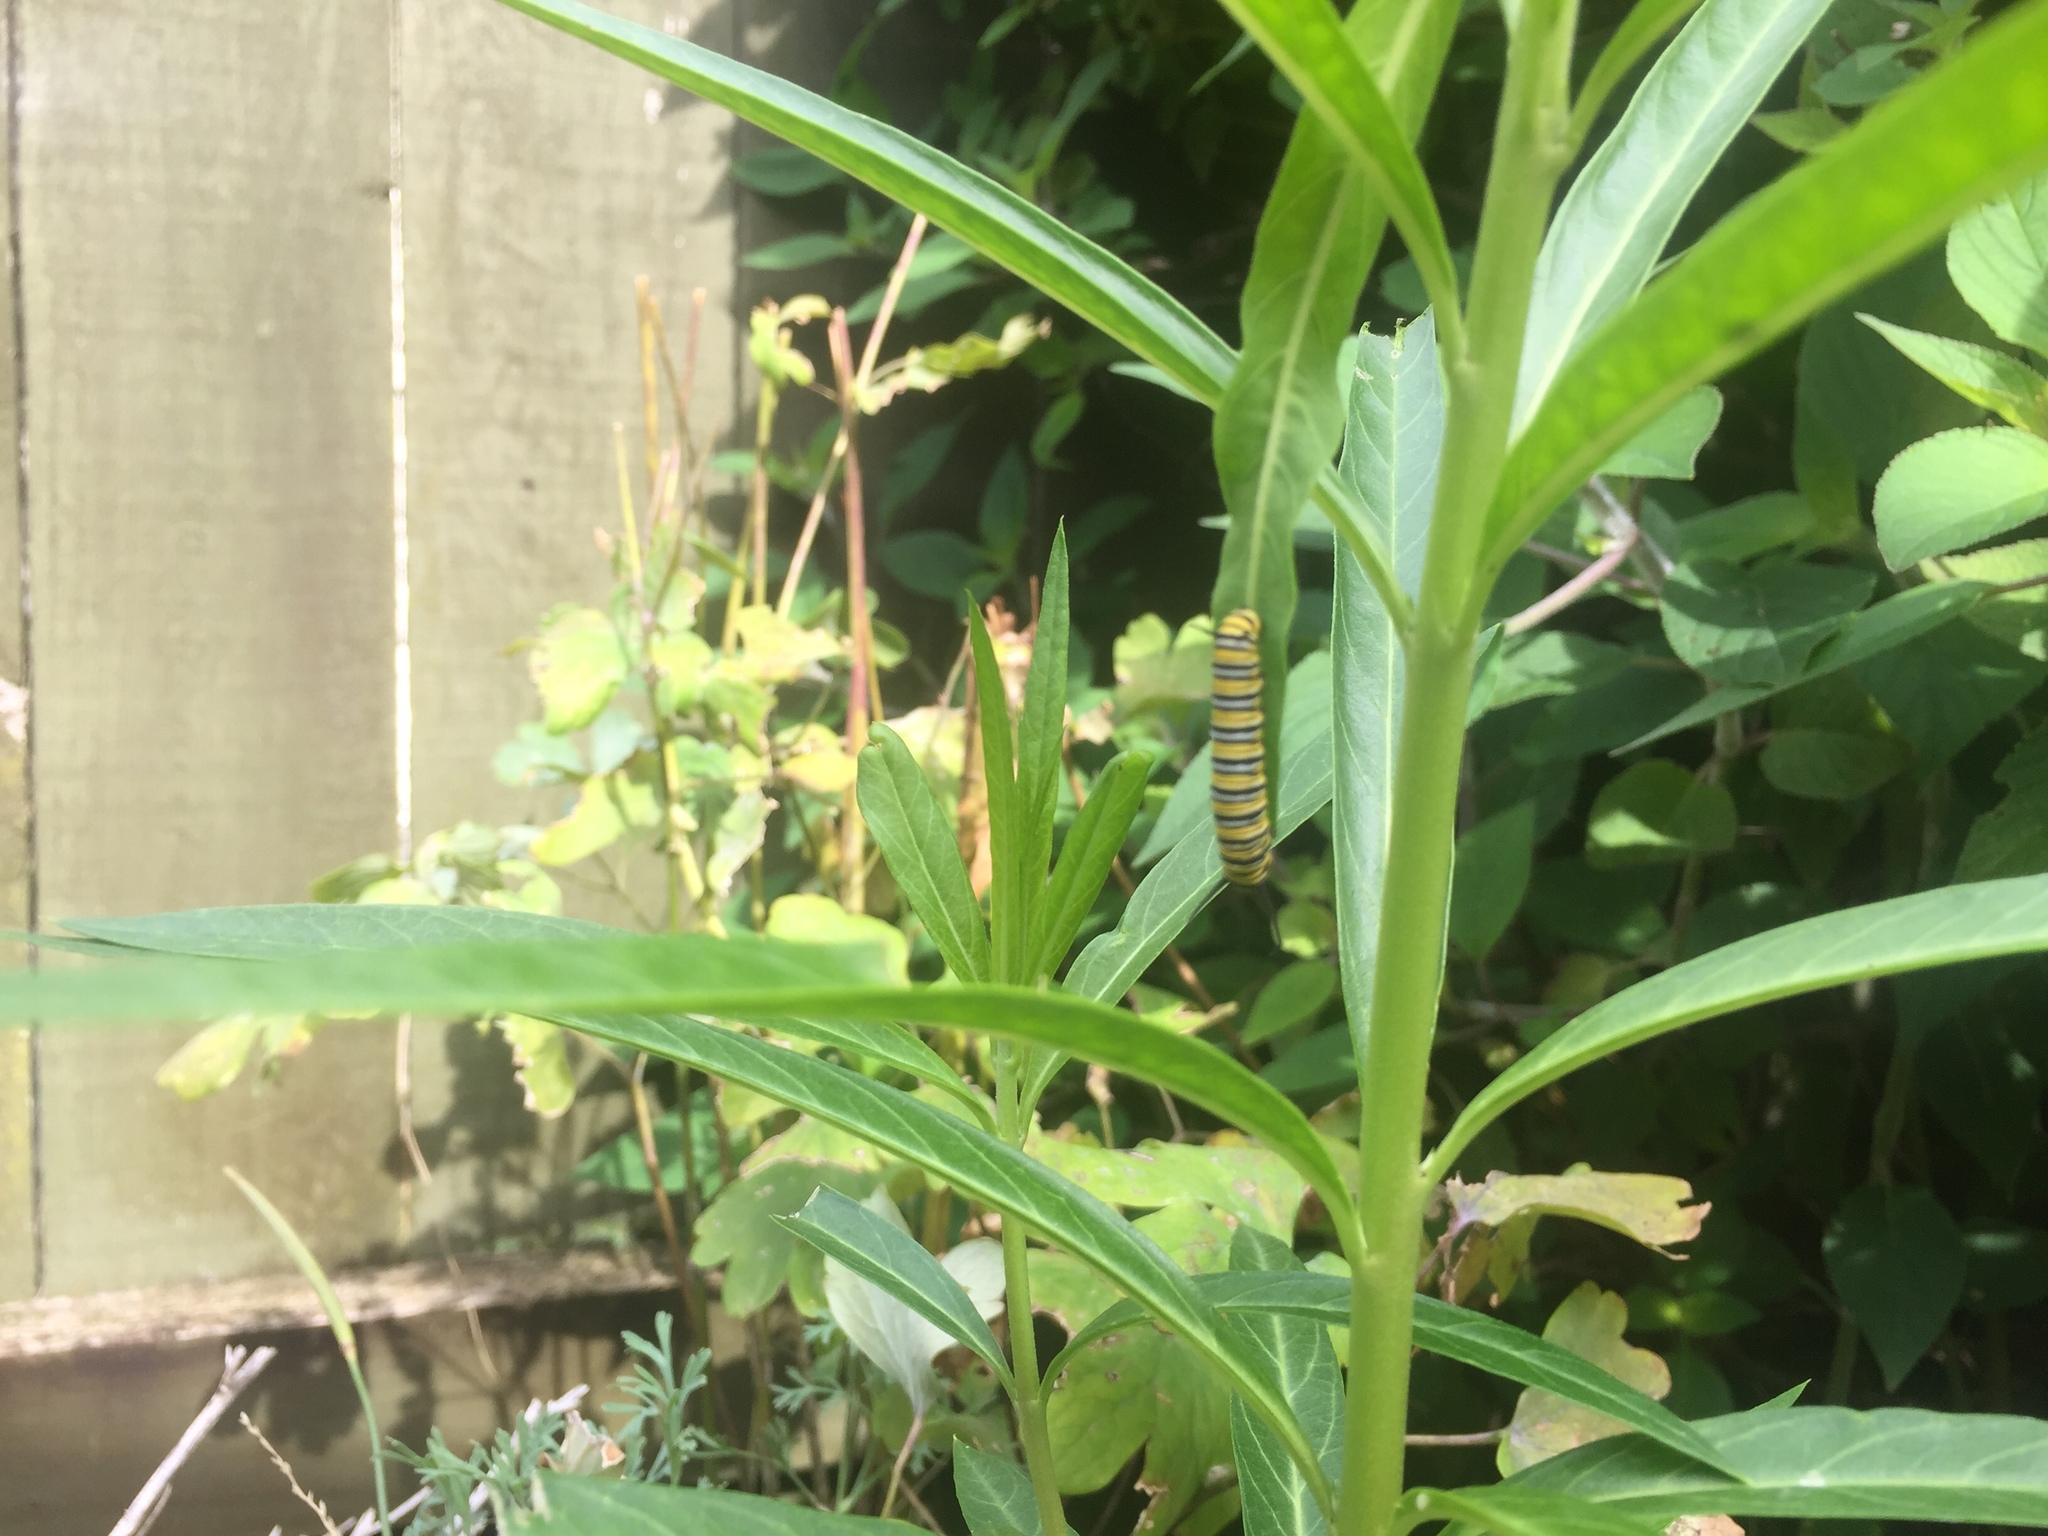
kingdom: Animalia
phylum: Arthropoda
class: Insecta
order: Lepidoptera
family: Nymphalidae
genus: Danaus
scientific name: Danaus plexippus
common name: Monarch
